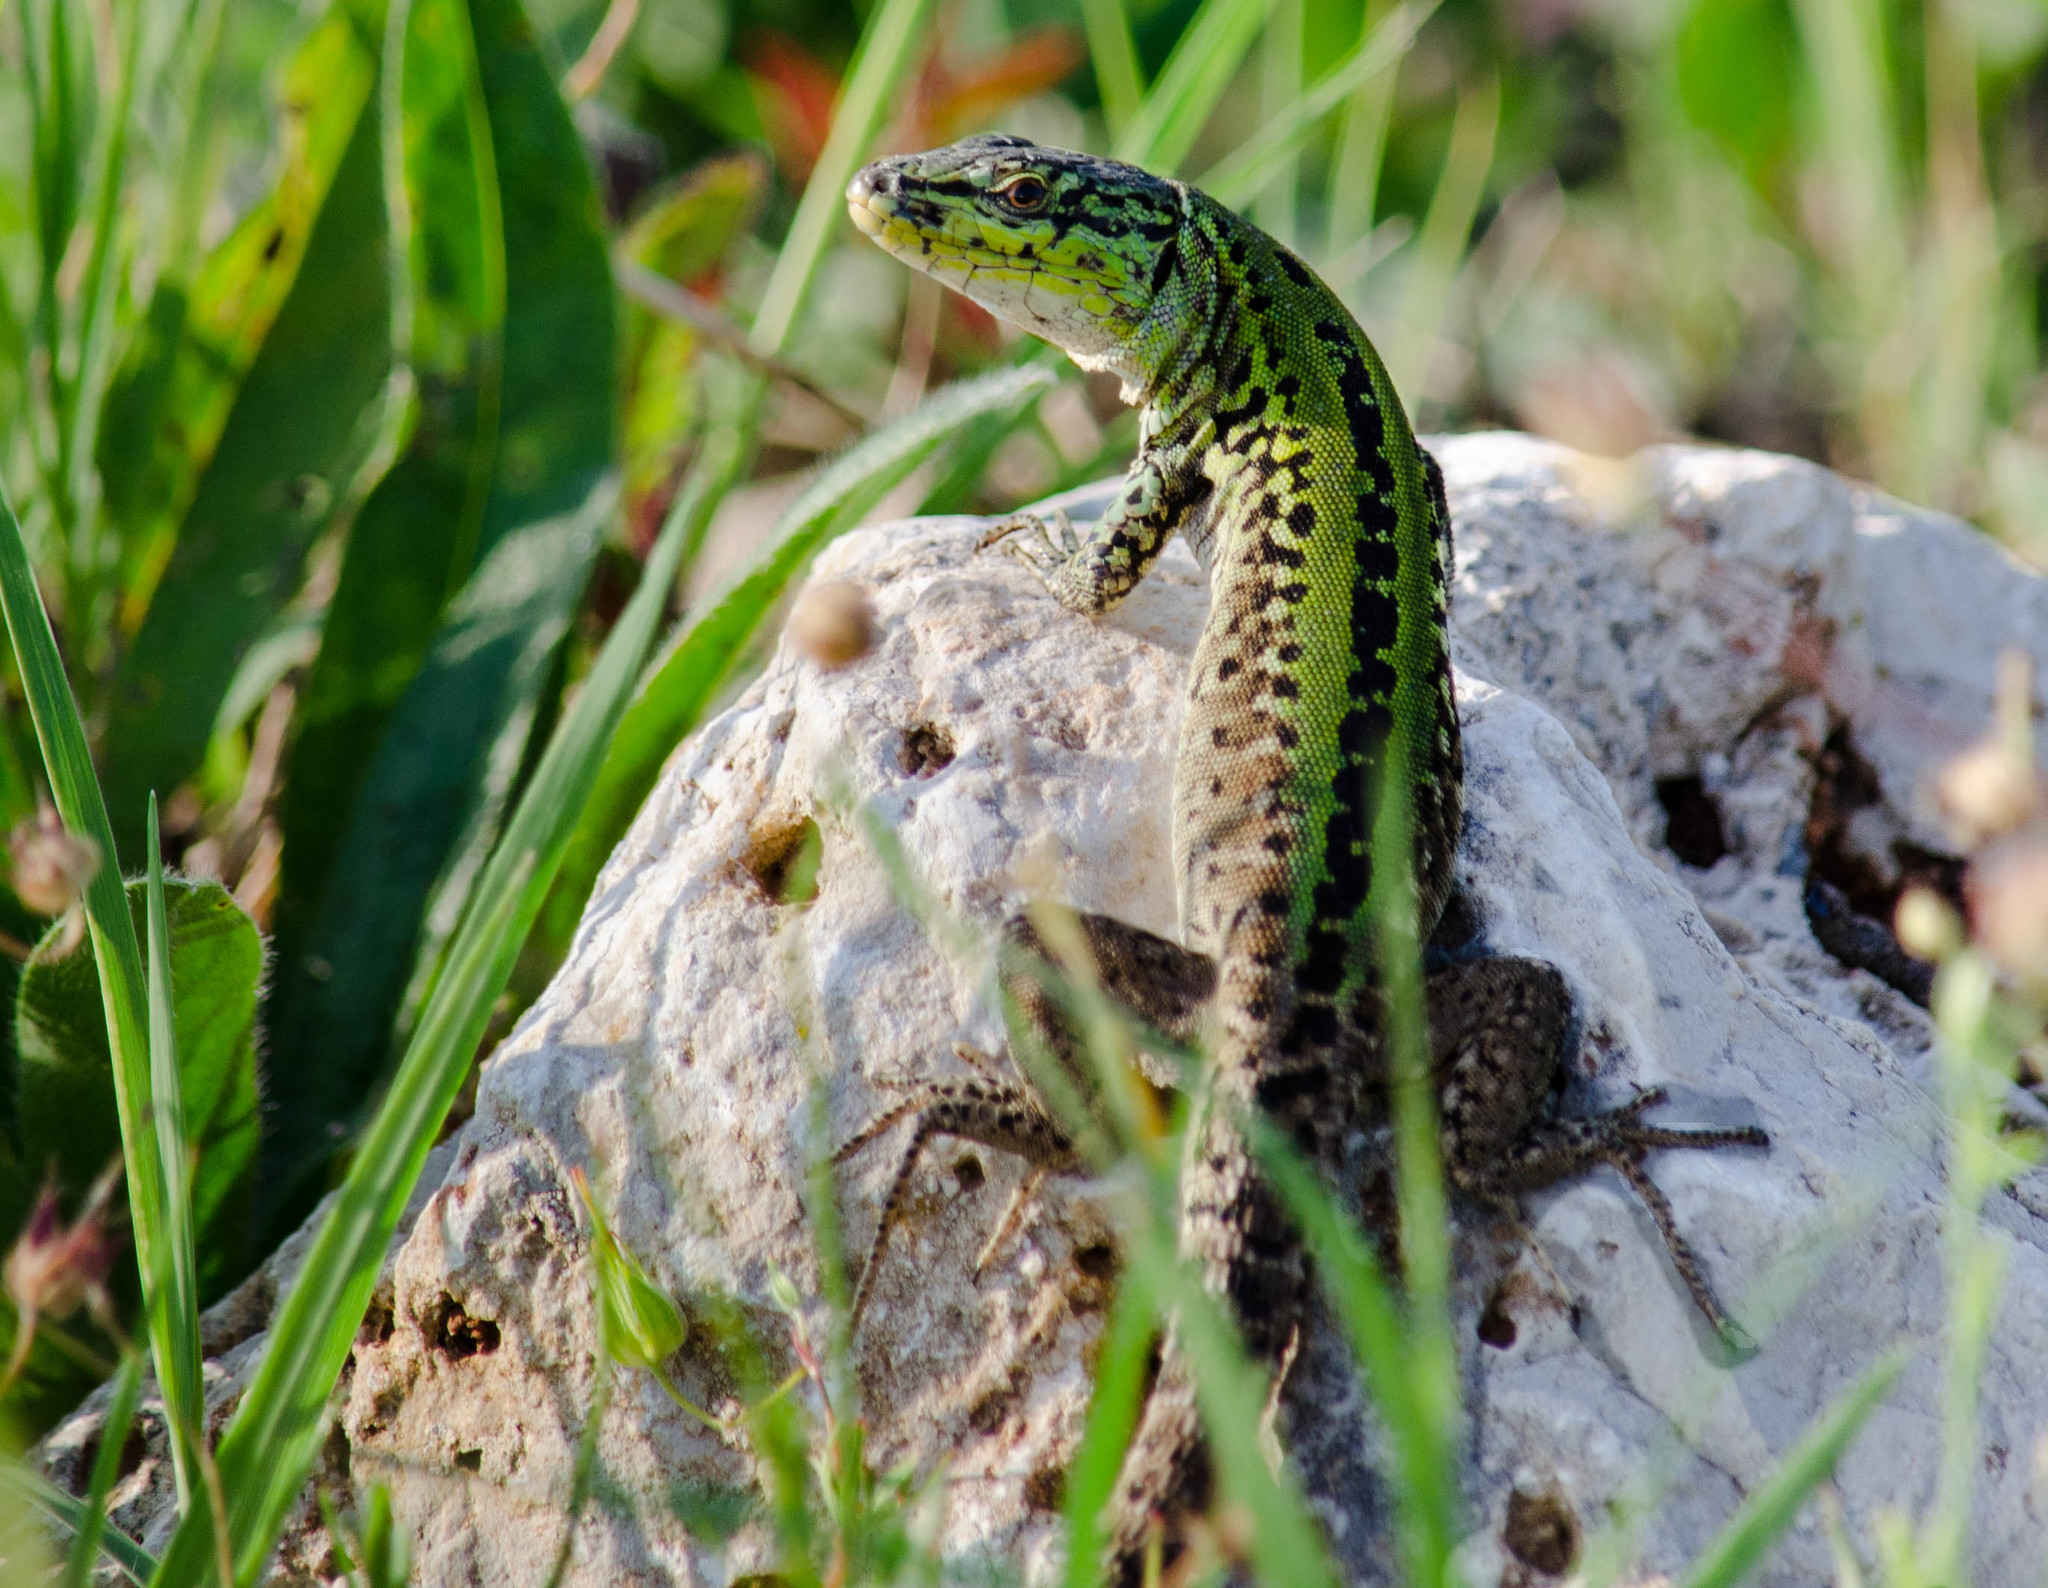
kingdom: Animalia
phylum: Chordata
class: Squamata
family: Lacertidae
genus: Podarcis
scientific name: Podarcis siculus
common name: Italian wall lizard
